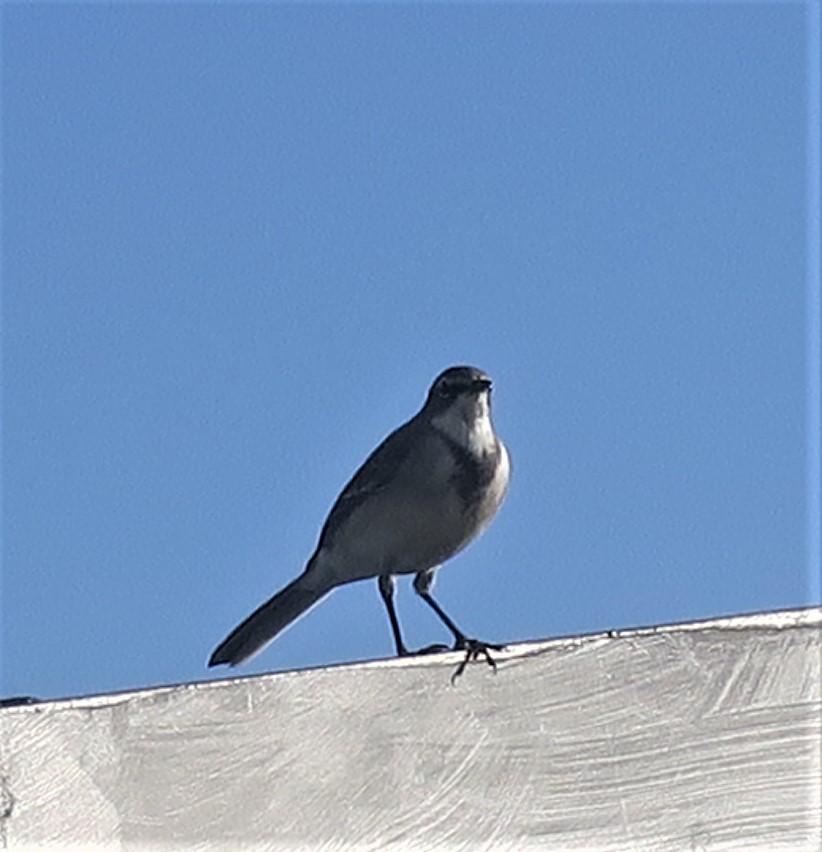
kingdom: Animalia
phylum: Chordata
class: Aves
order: Passeriformes
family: Motacillidae
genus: Motacilla
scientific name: Motacilla capensis
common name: Cape wagtail
